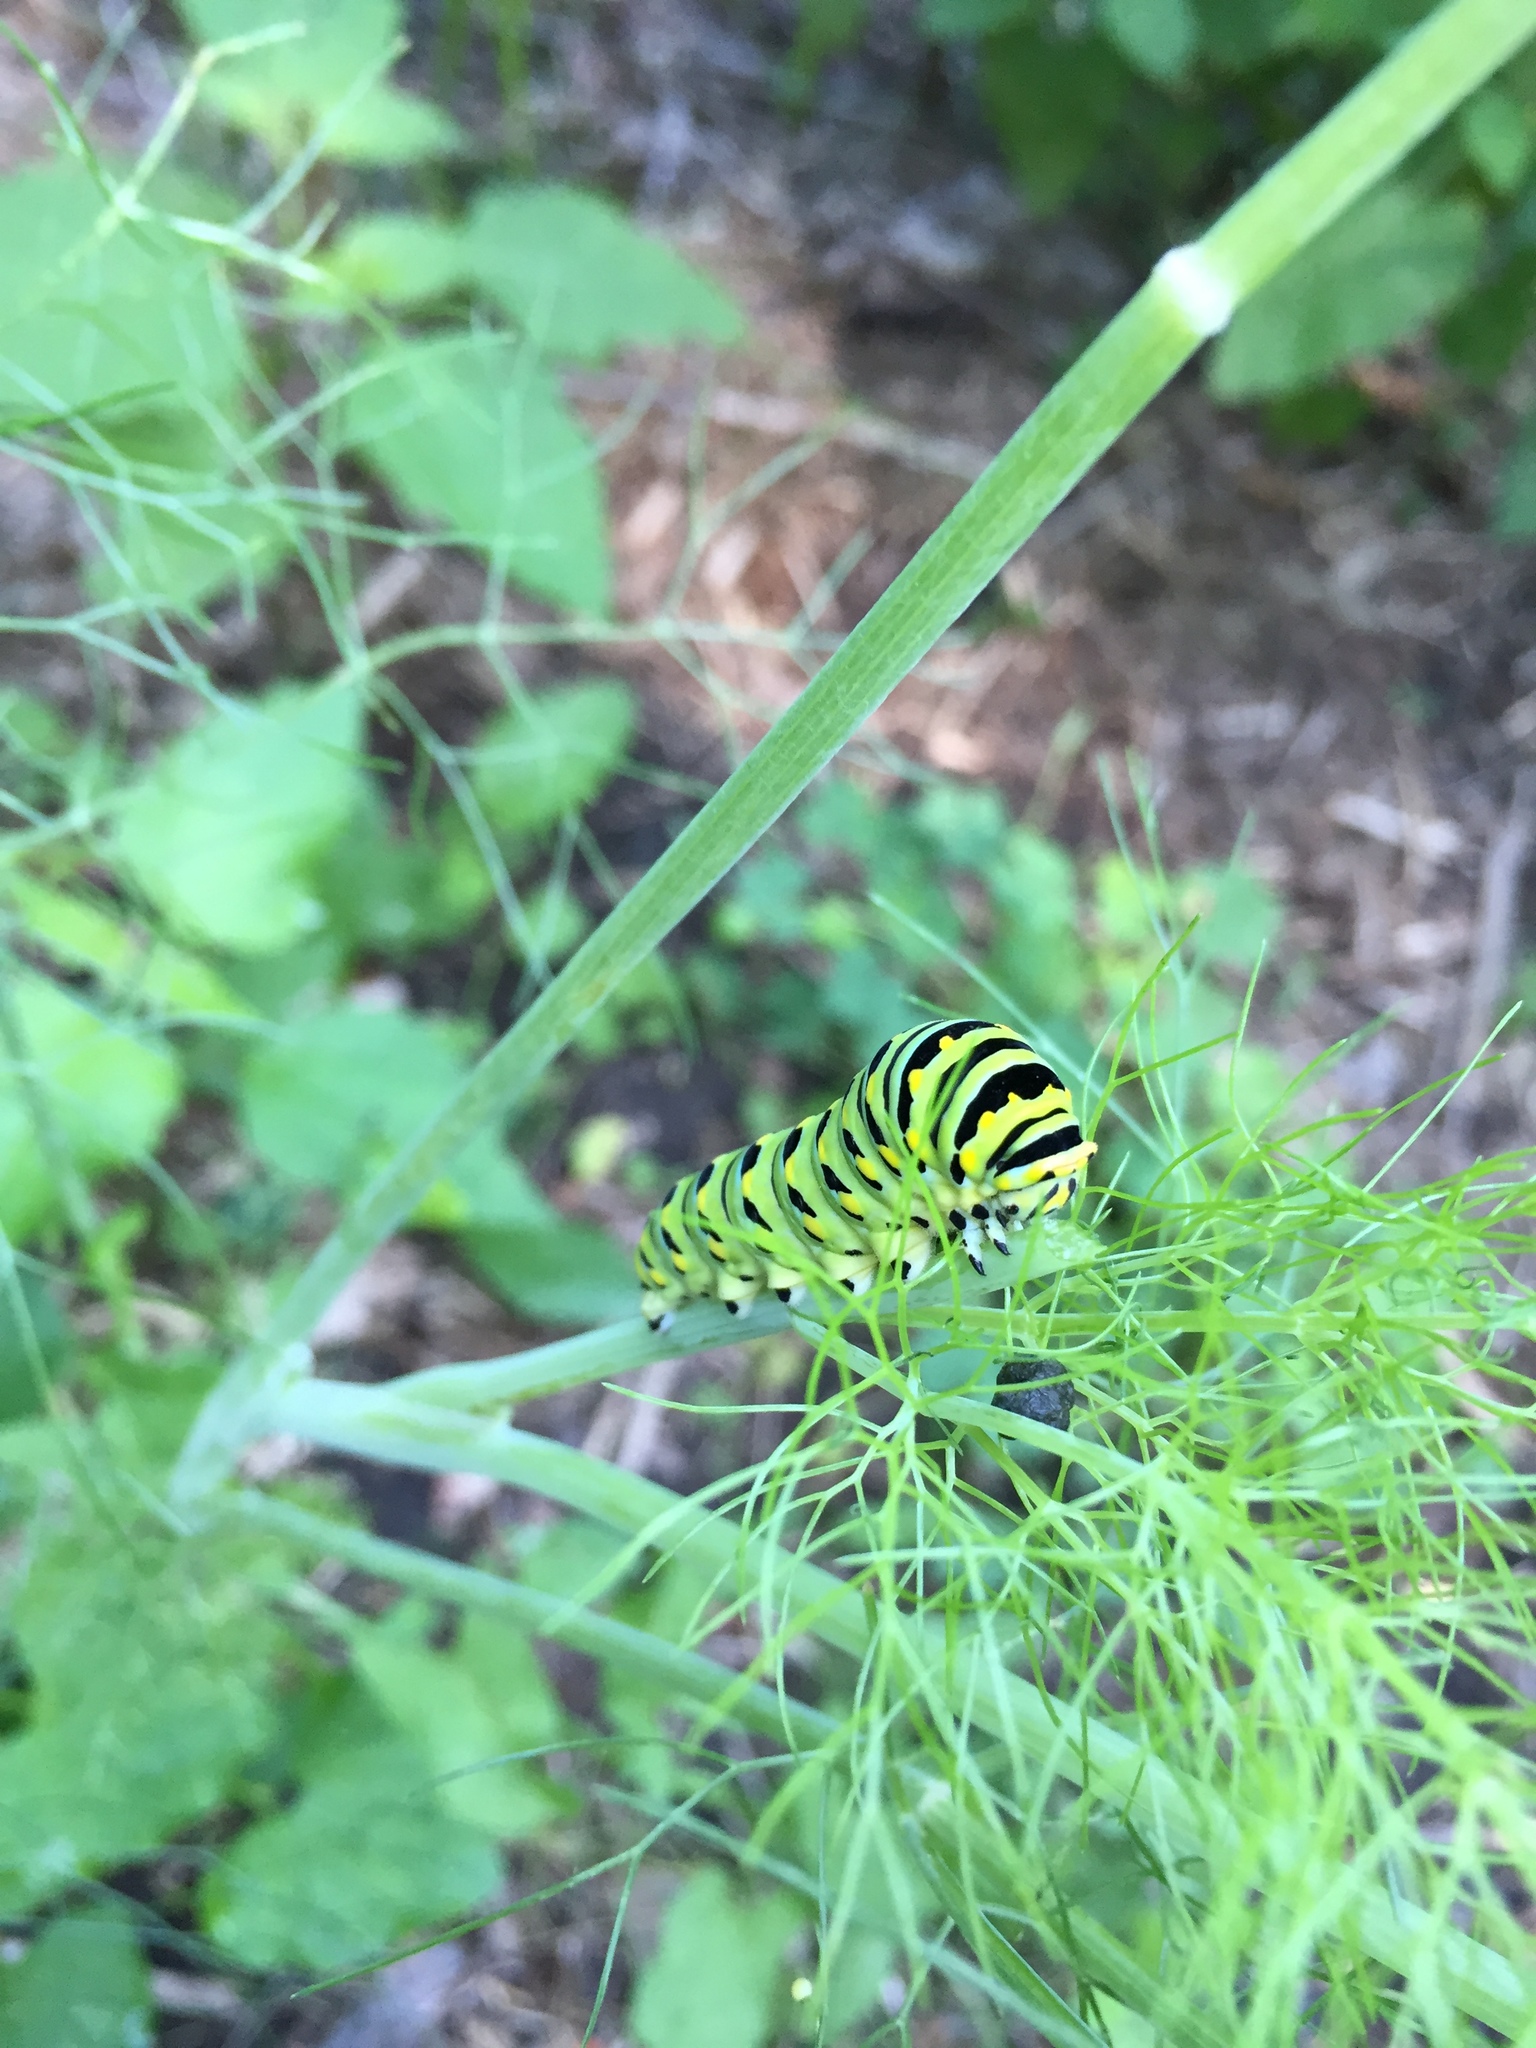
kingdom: Animalia
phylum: Arthropoda
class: Insecta
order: Lepidoptera
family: Papilionidae
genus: Papilio
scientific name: Papilio polyxenes
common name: Black swallowtail
